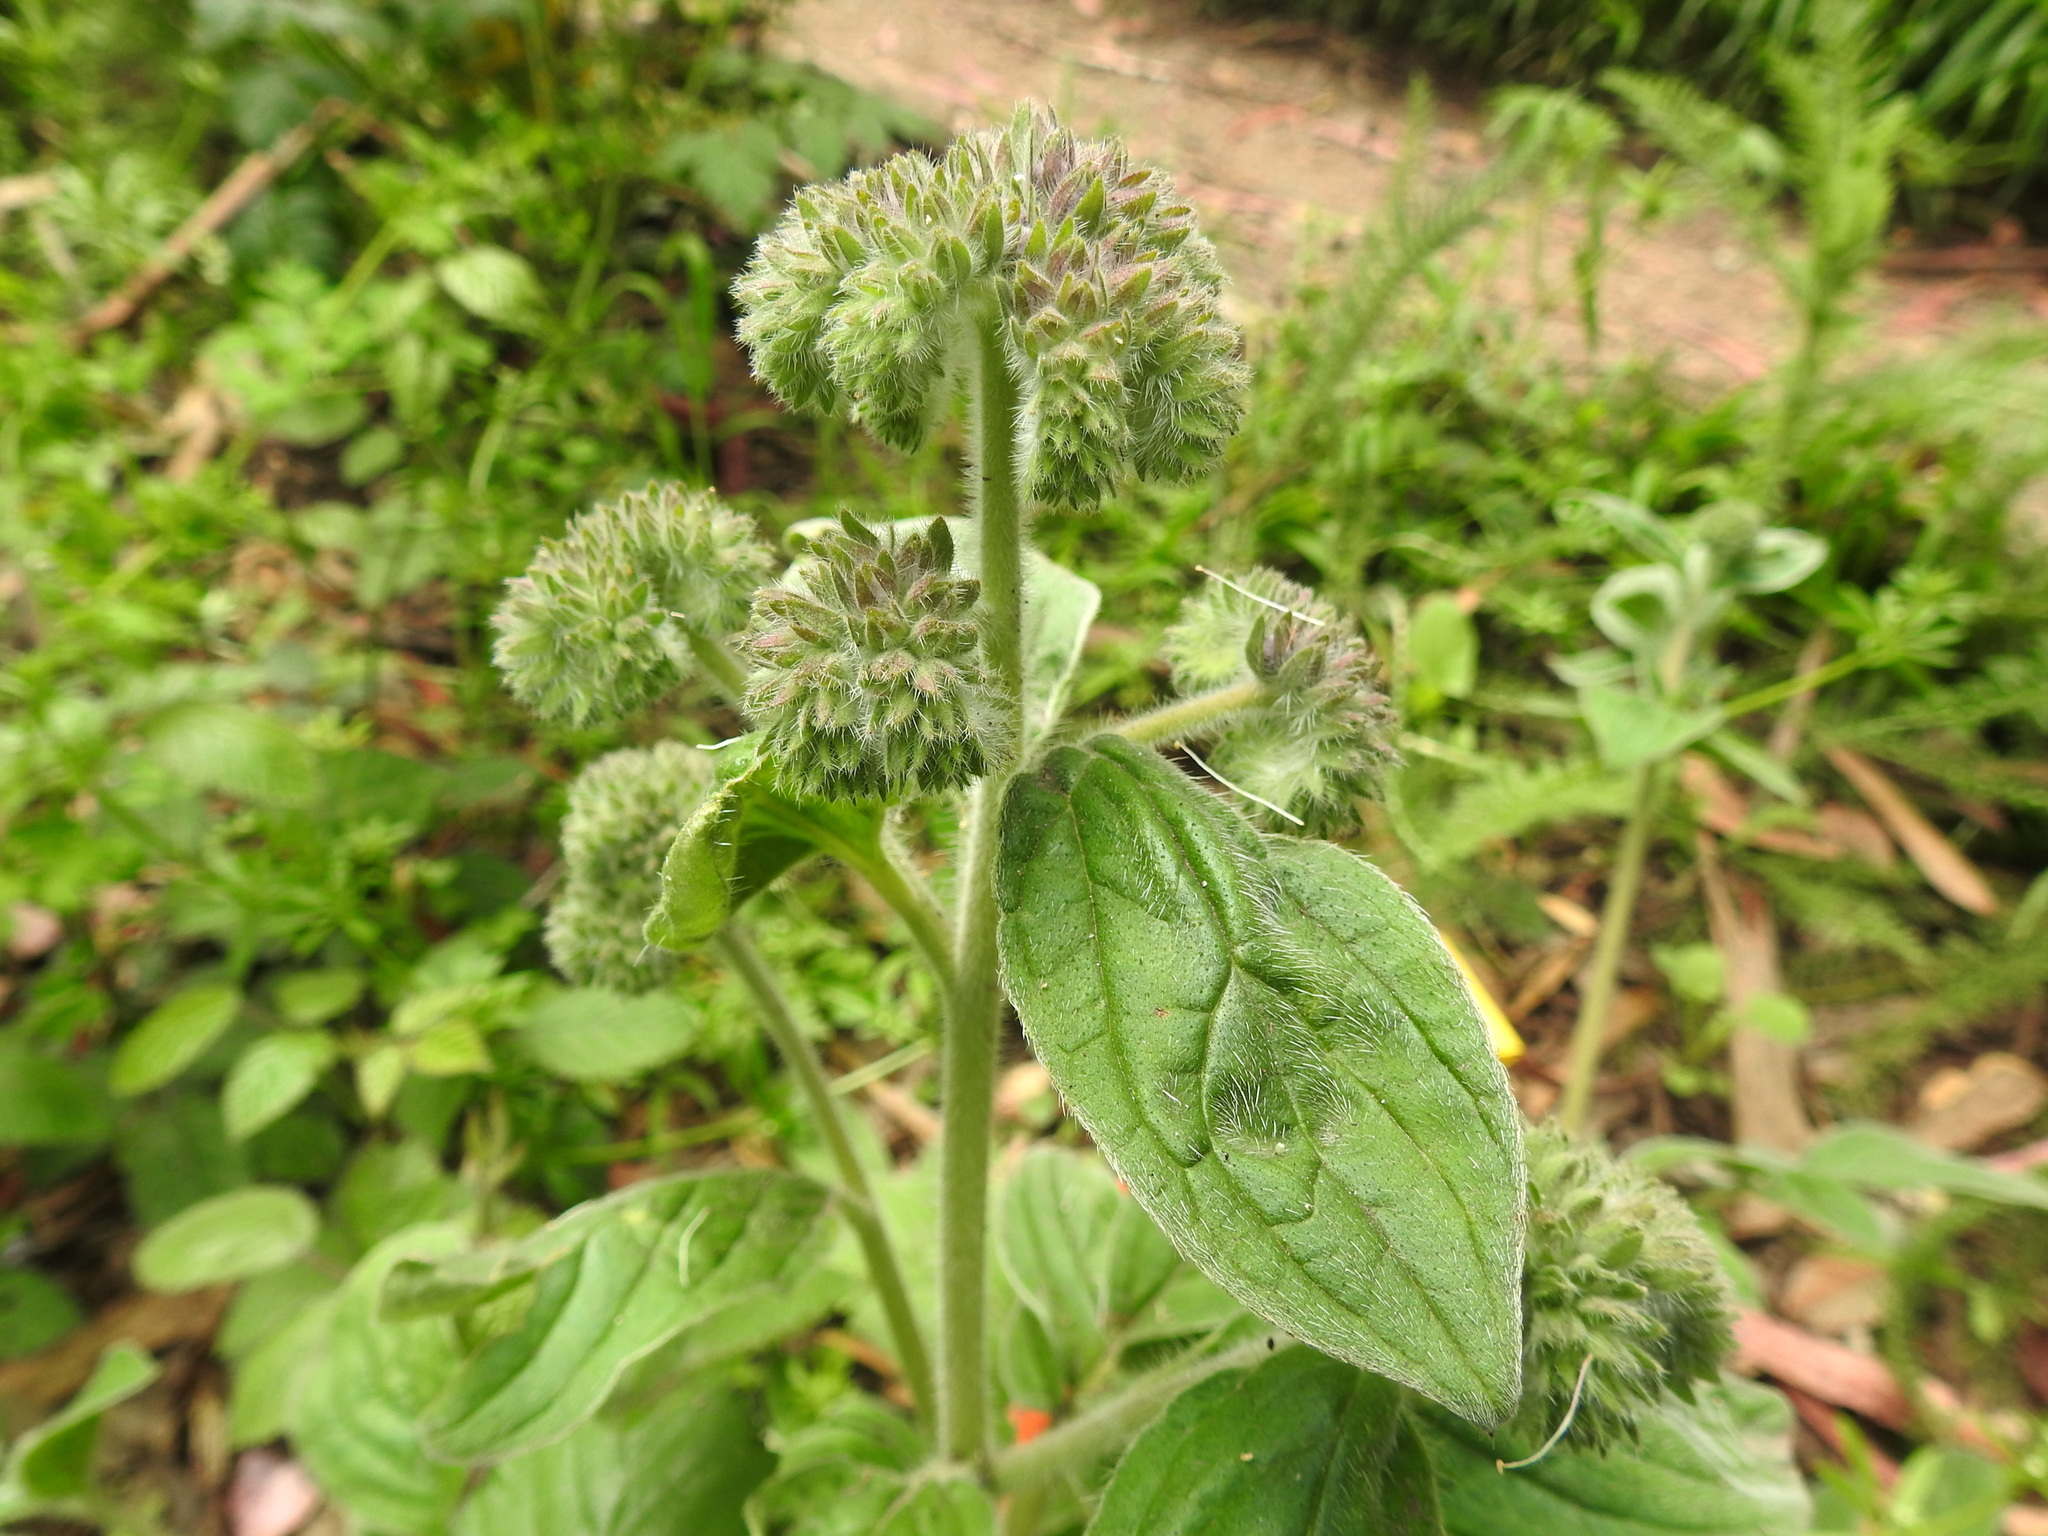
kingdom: Plantae
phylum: Tracheophyta
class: Magnoliopsida
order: Boraginales
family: Hydrophyllaceae
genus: Phacelia
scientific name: Phacelia californica
